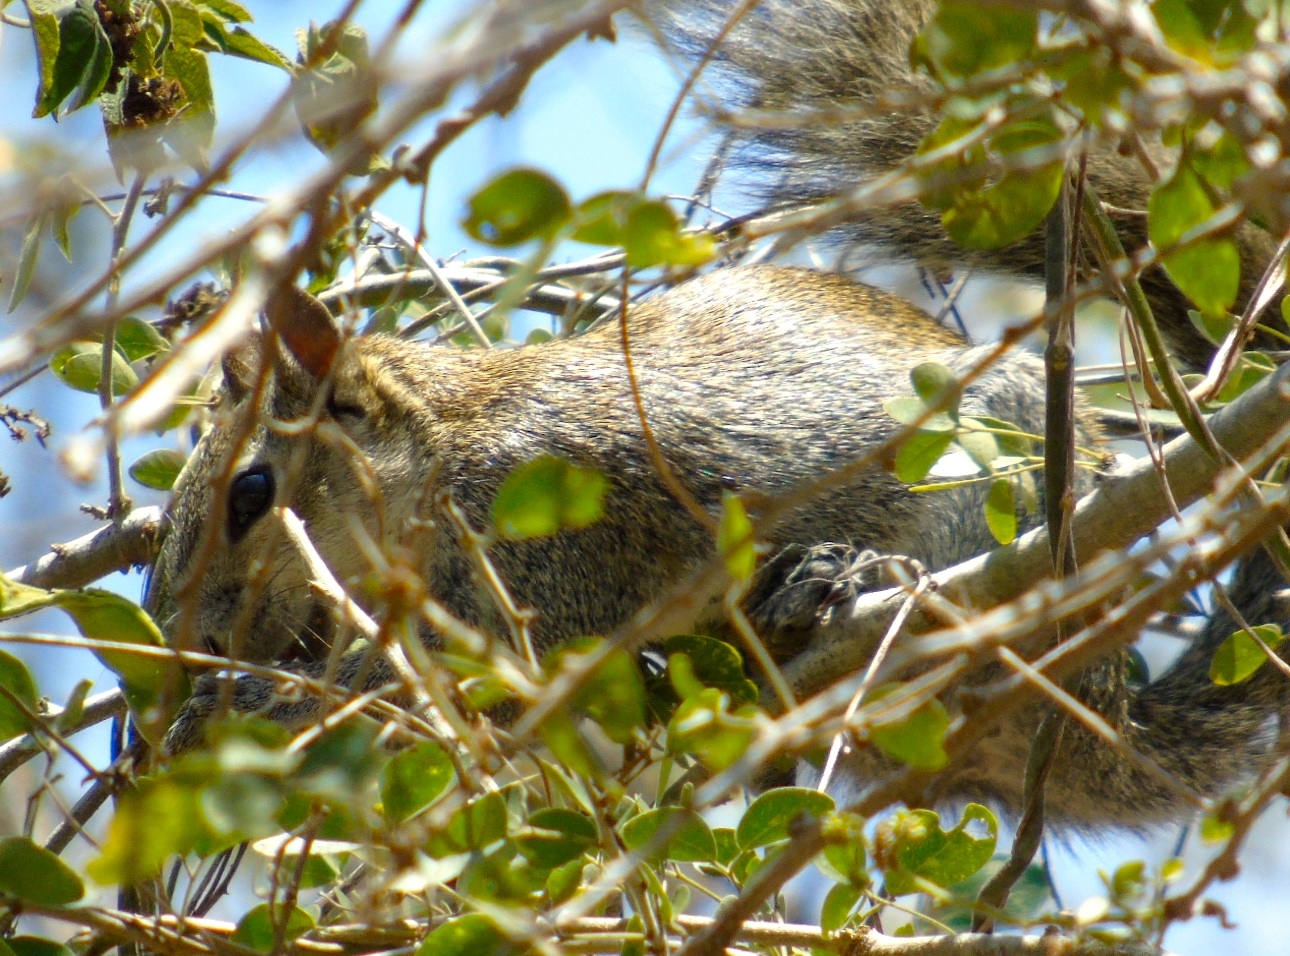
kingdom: Animalia
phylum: Chordata
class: Mammalia
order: Rodentia
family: Sciuridae
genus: Sciurus
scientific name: Sciurus colliaei
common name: Collie's squirrel
